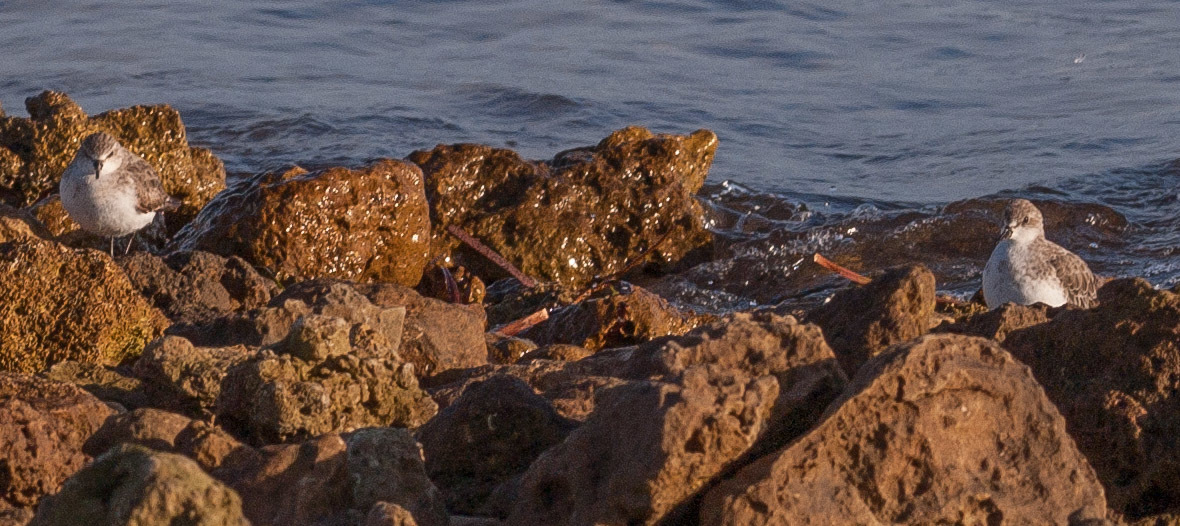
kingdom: Animalia
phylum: Chordata
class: Aves
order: Charadriiformes
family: Scolopacidae
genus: Calidris
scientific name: Calidris ruficollis
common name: Red-necked stint
